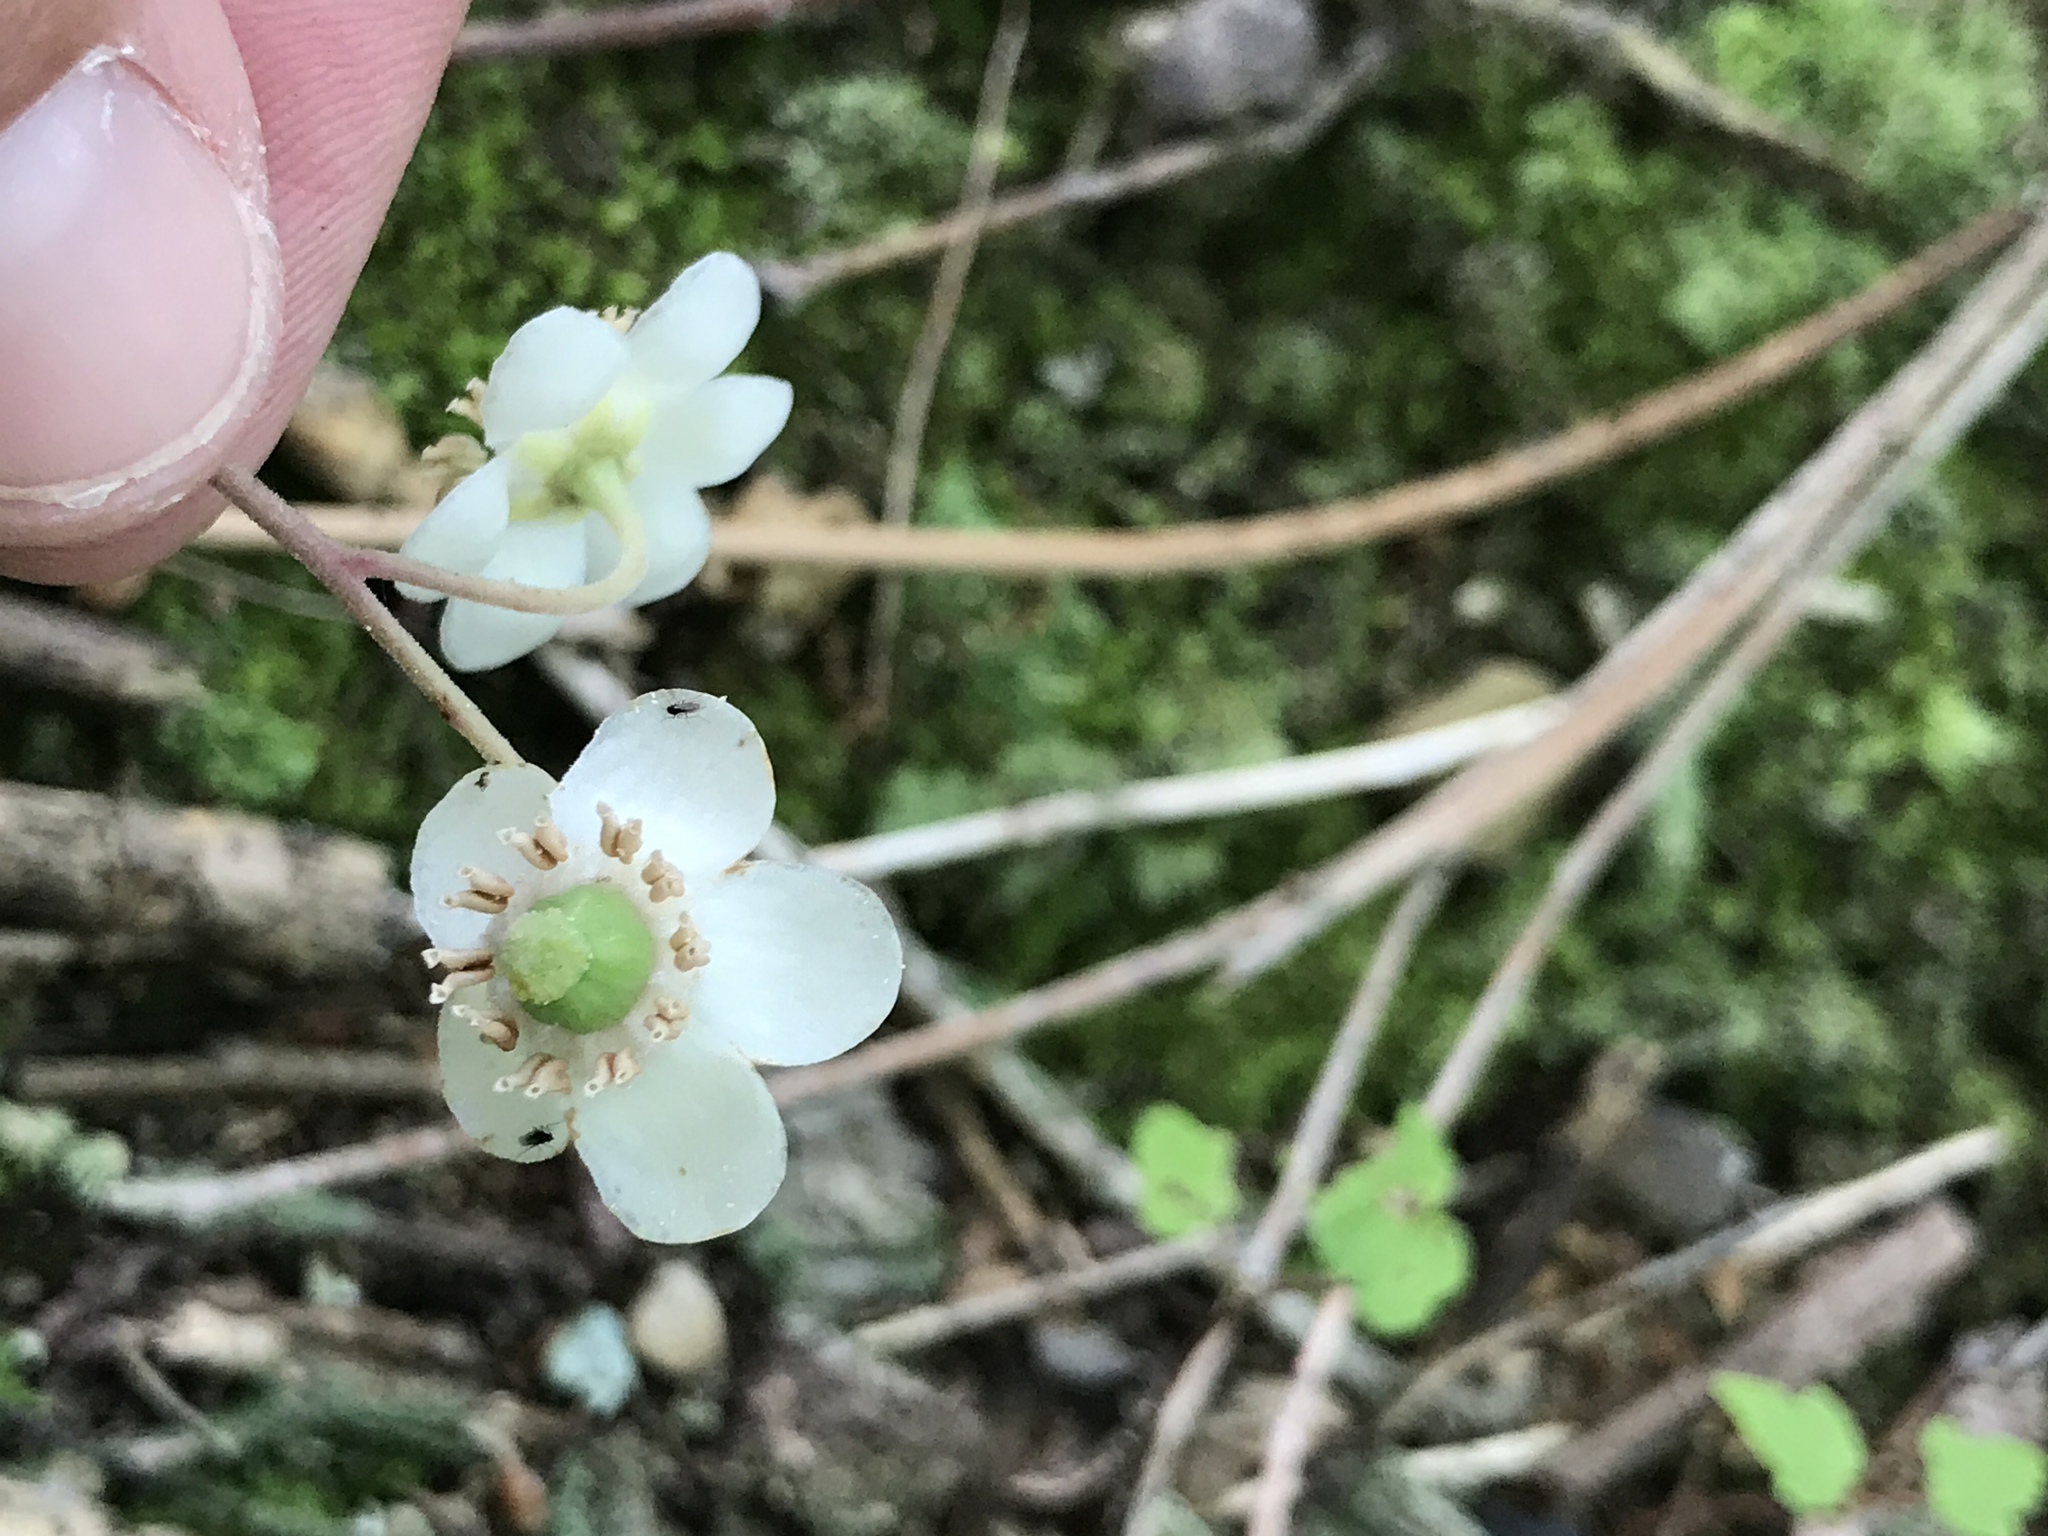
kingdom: Plantae
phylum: Tracheophyta
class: Magnoliopsida
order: Ericales
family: Ericaceae
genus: Chimaphila
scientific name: Chimaphila maculata
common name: Spotted pipsissewa
